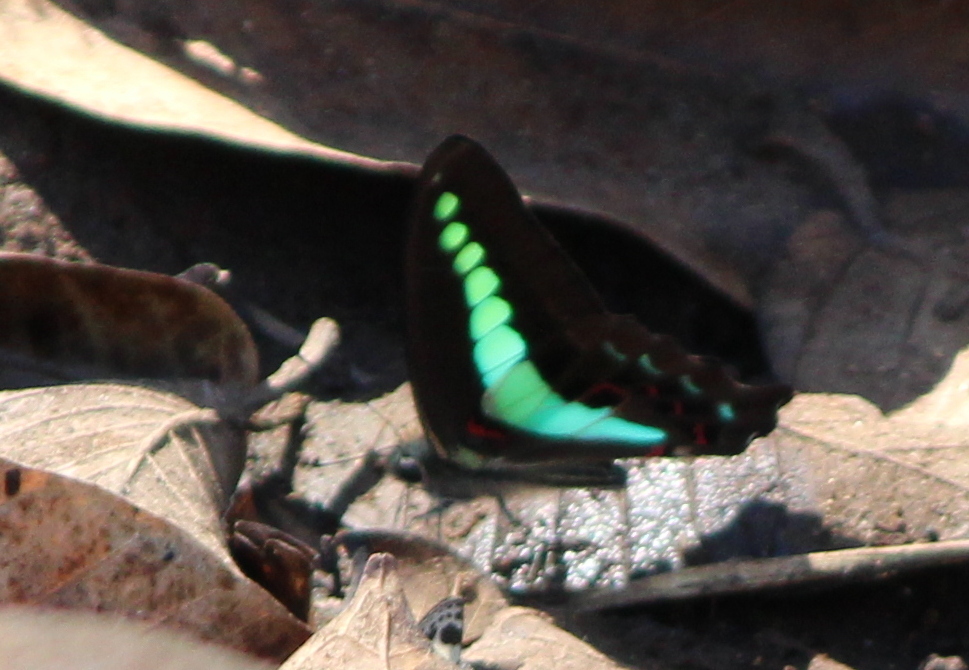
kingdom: Animalia
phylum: Arthropoda
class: Insecta
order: Lepidoptera
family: Papilionidae
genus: Graphium
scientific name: Graphium
